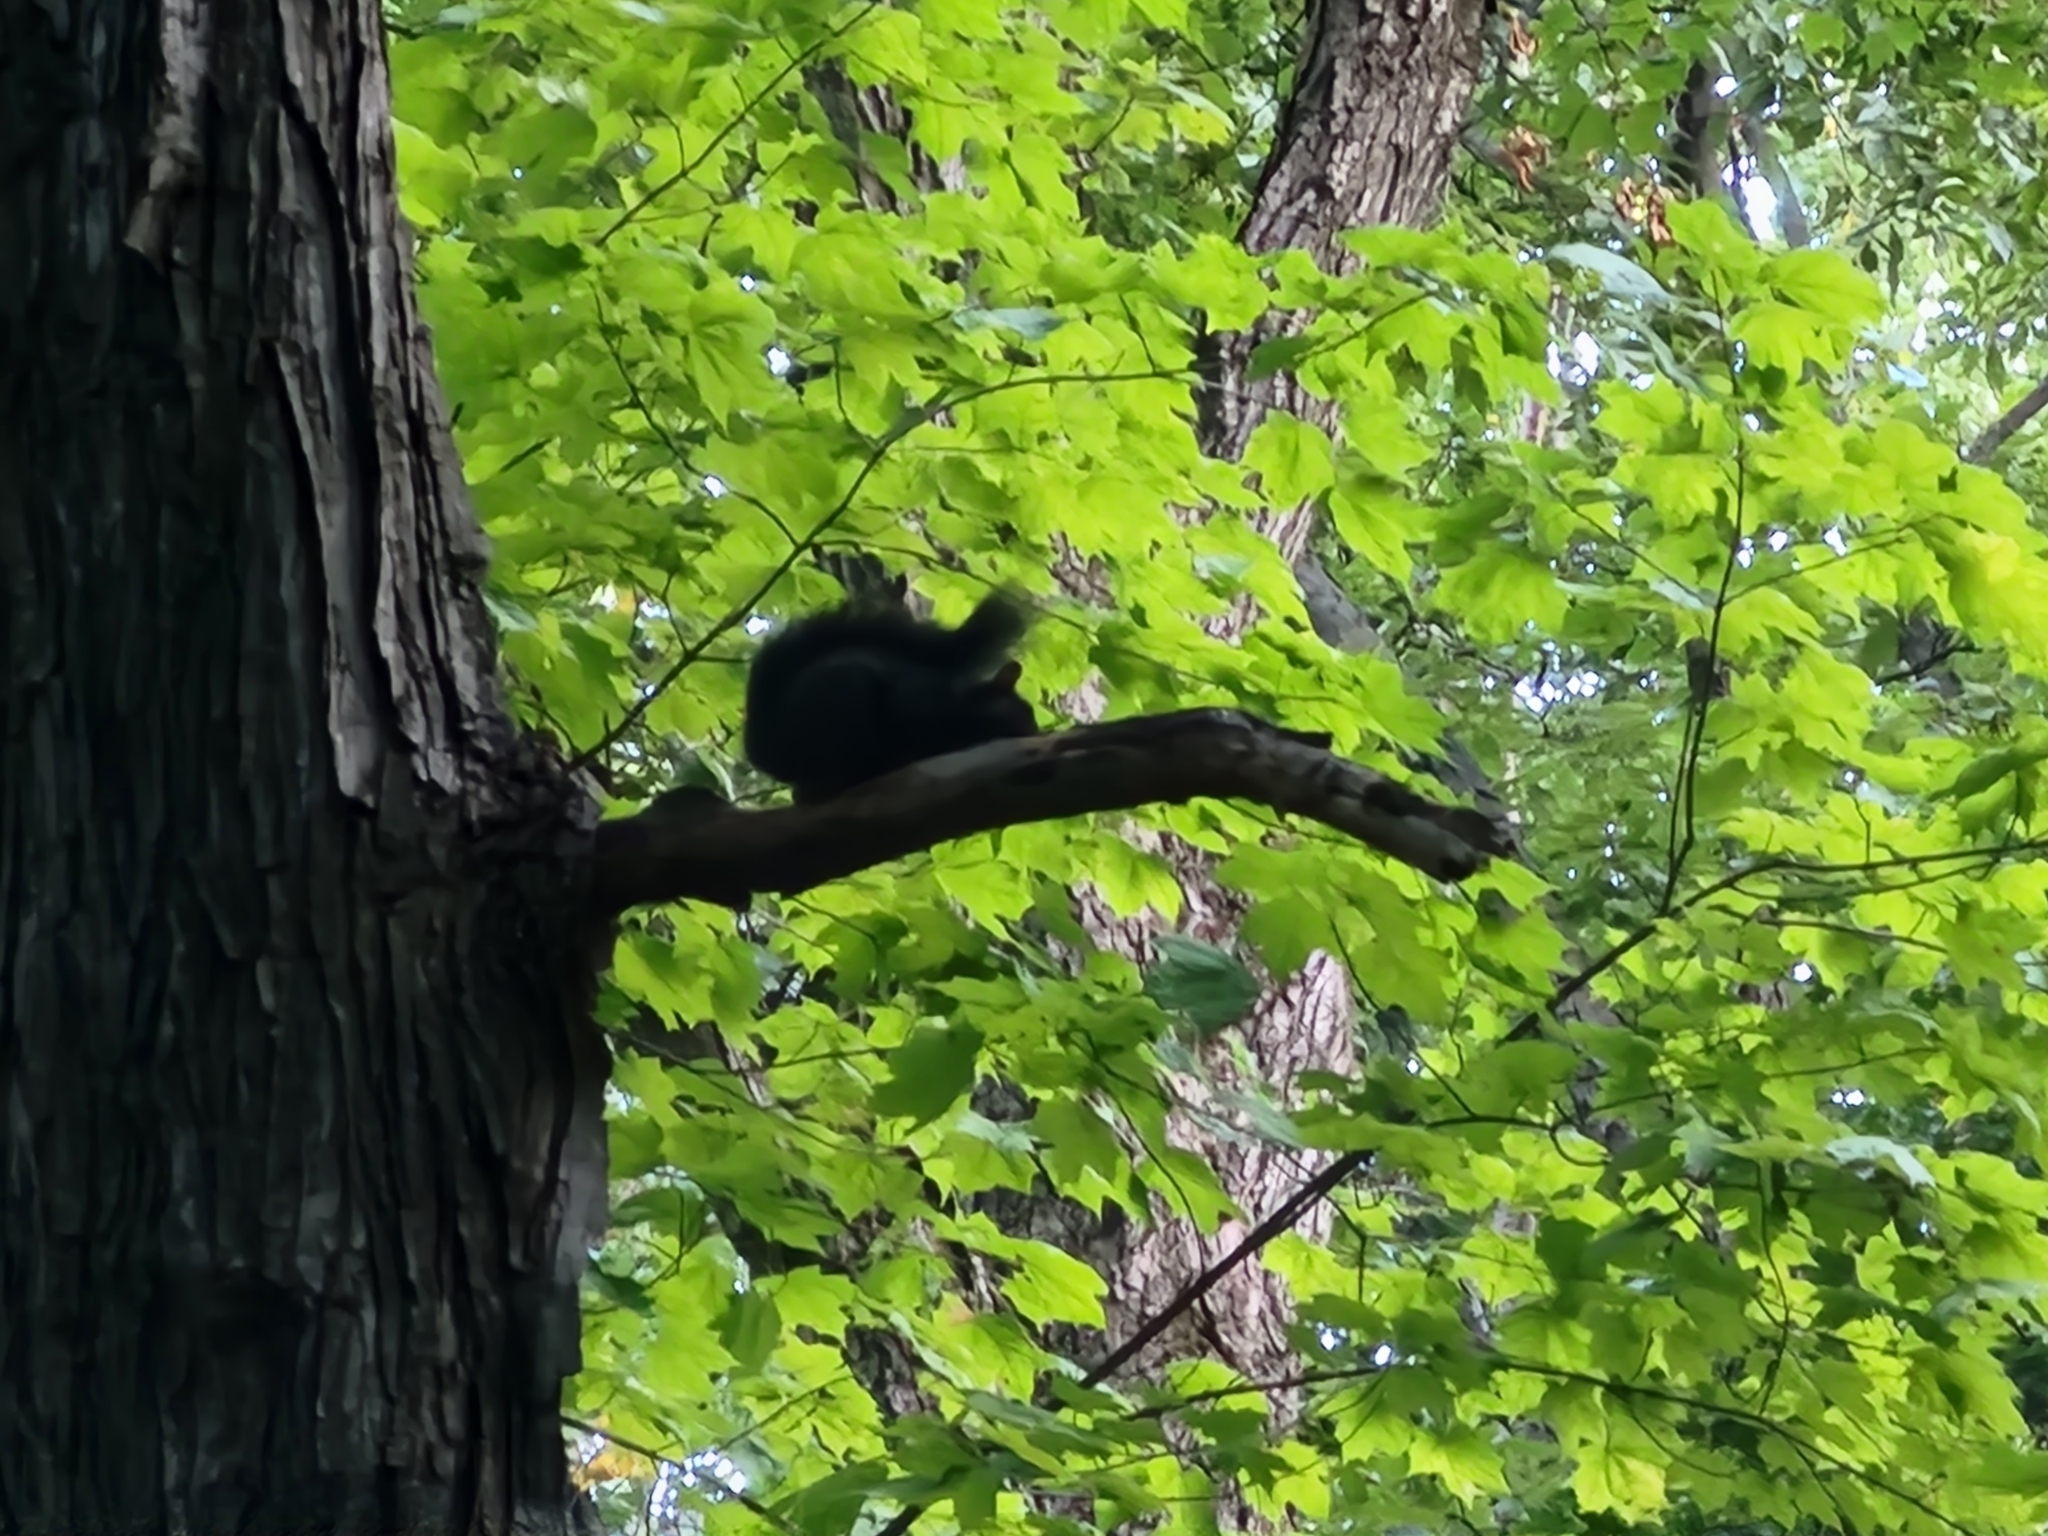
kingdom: Animalia
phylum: Chordata
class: Mammalia
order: Rodentia
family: Sciuridae
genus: Sciurus
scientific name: Sciurus carolinensis
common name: Eastern gray squirrel
